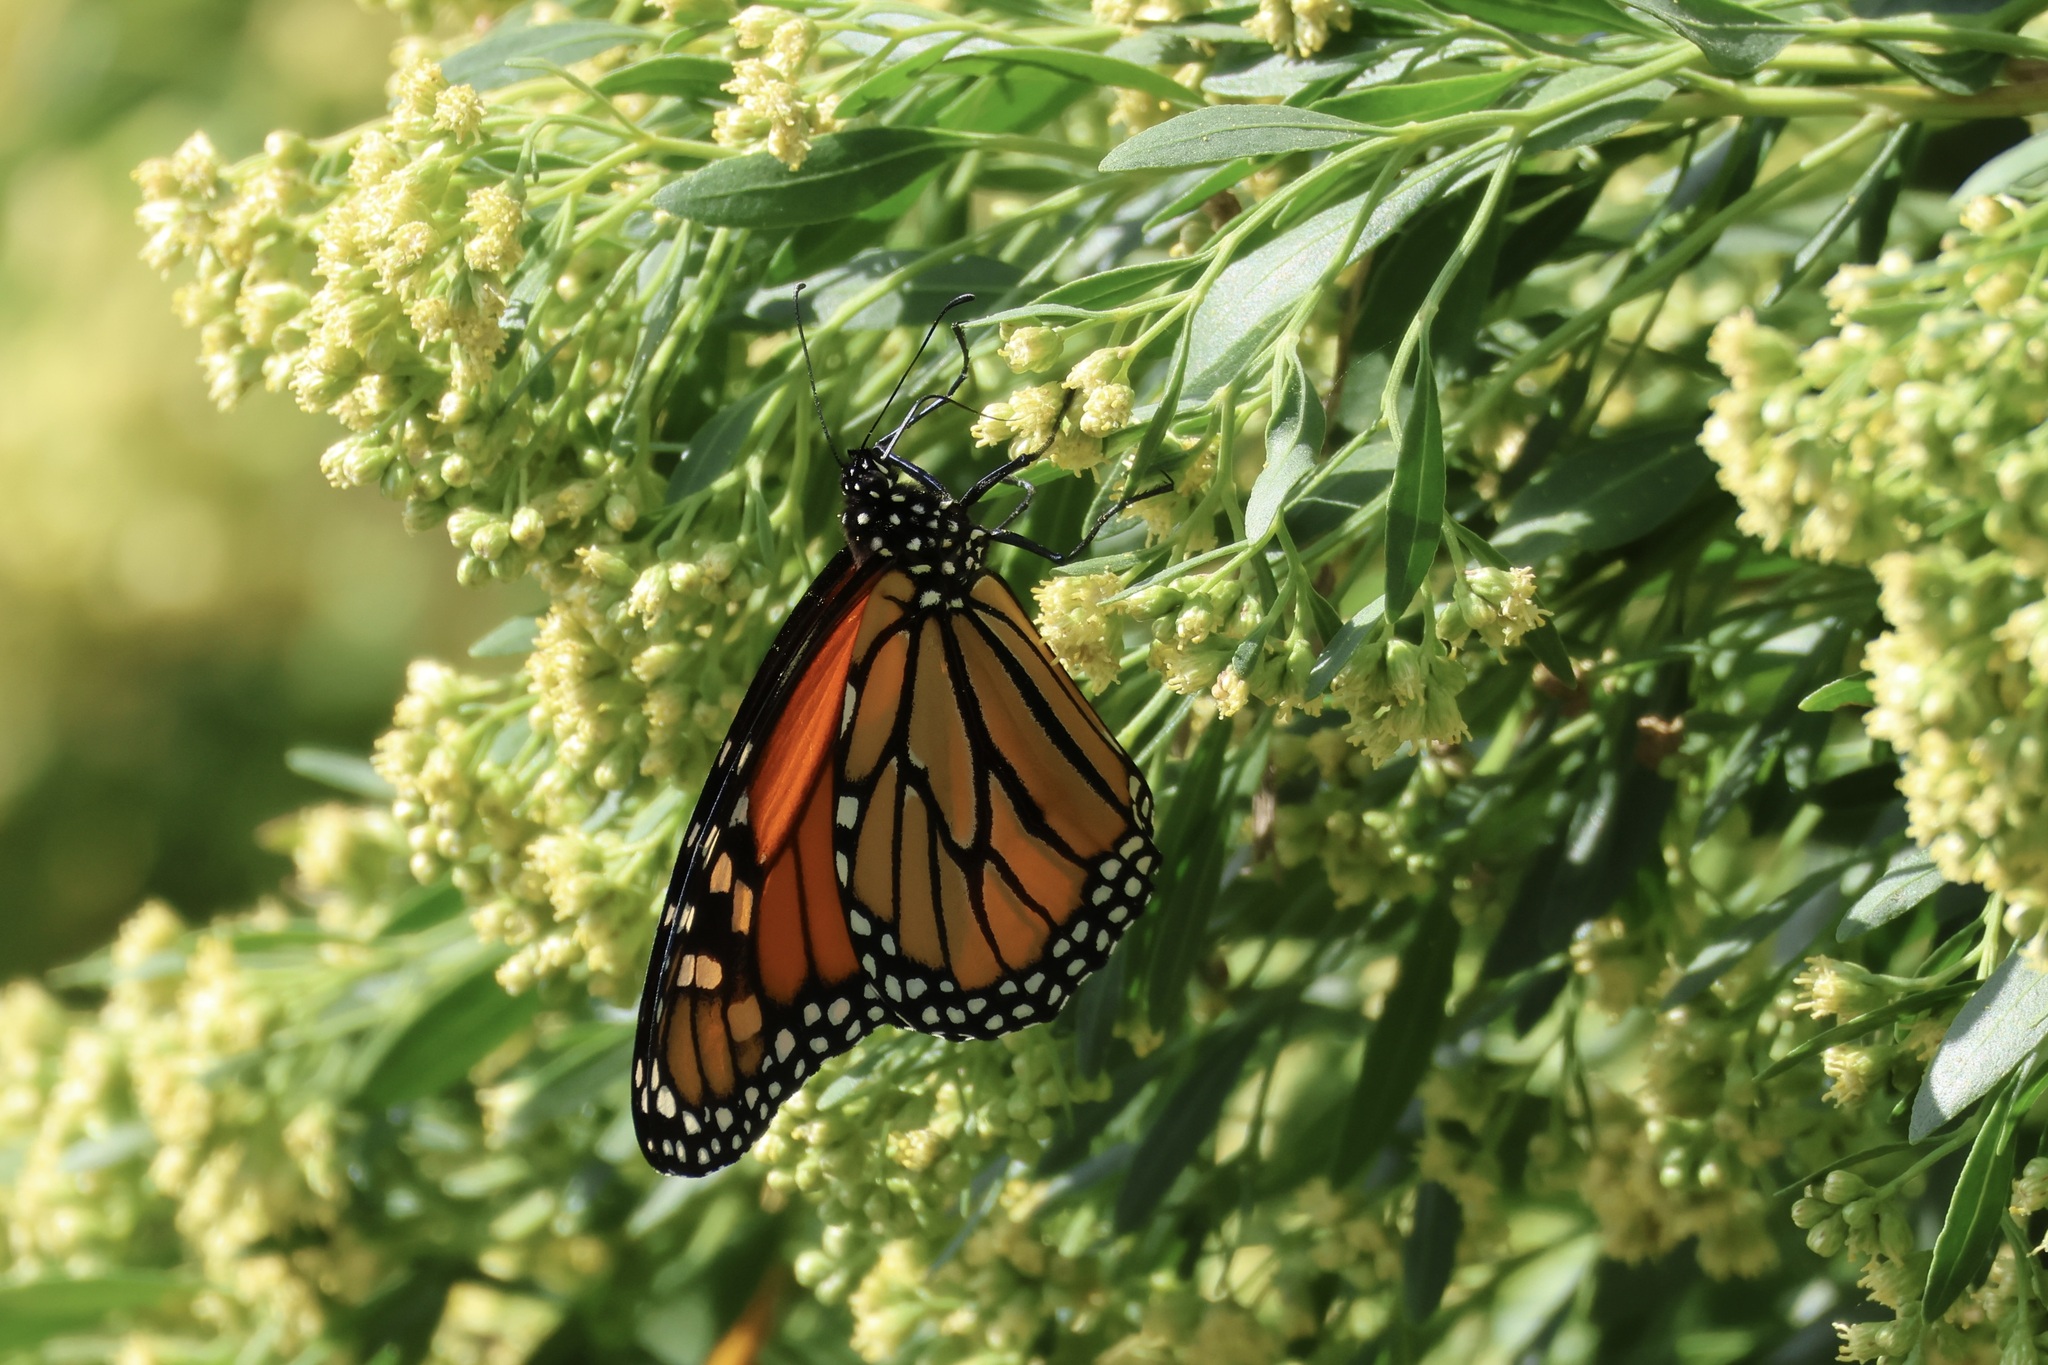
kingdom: Animalia
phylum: Arthropoda
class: Insecta
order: Lepidoptera
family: Nymphalidae
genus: Danaus
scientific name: Danaus plexippus
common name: Monarch
